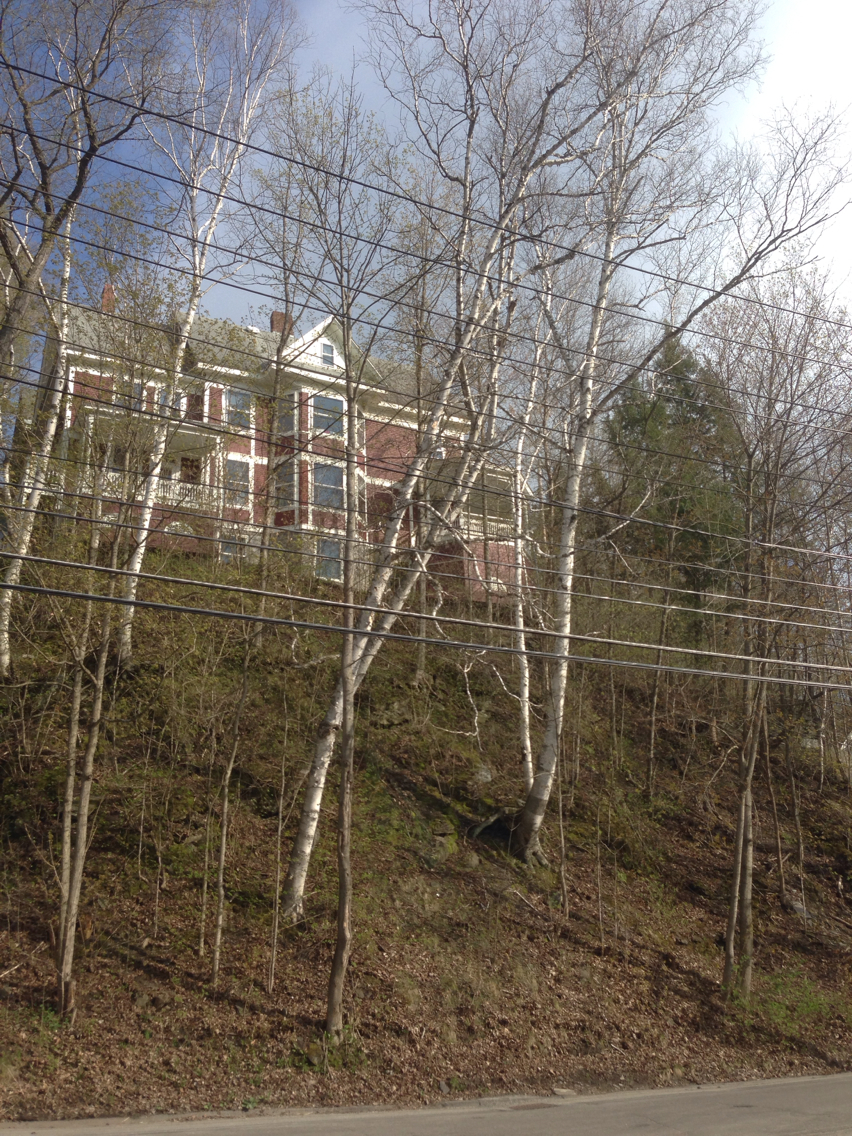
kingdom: Plantae
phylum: Tracheophyta
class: Magnoliopsida
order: Fagales
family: Betulaceae
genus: Betula
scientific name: Betula papyrifera
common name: Paper birch
